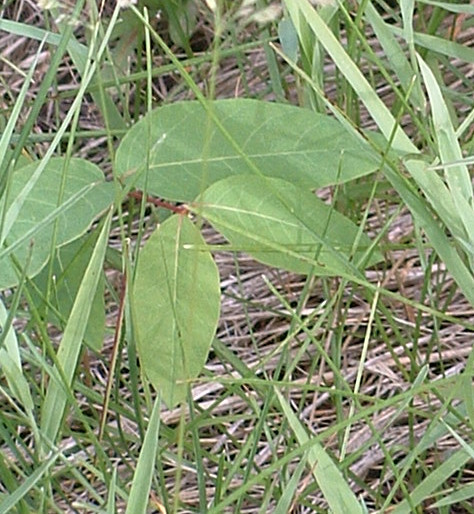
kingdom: Plantae
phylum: Tracheophyta
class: Magnoliopsida
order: Gentianales
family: Apocynaceae
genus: Apocynum
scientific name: Apocynum androsaemifolium
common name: Spreading dogbane
